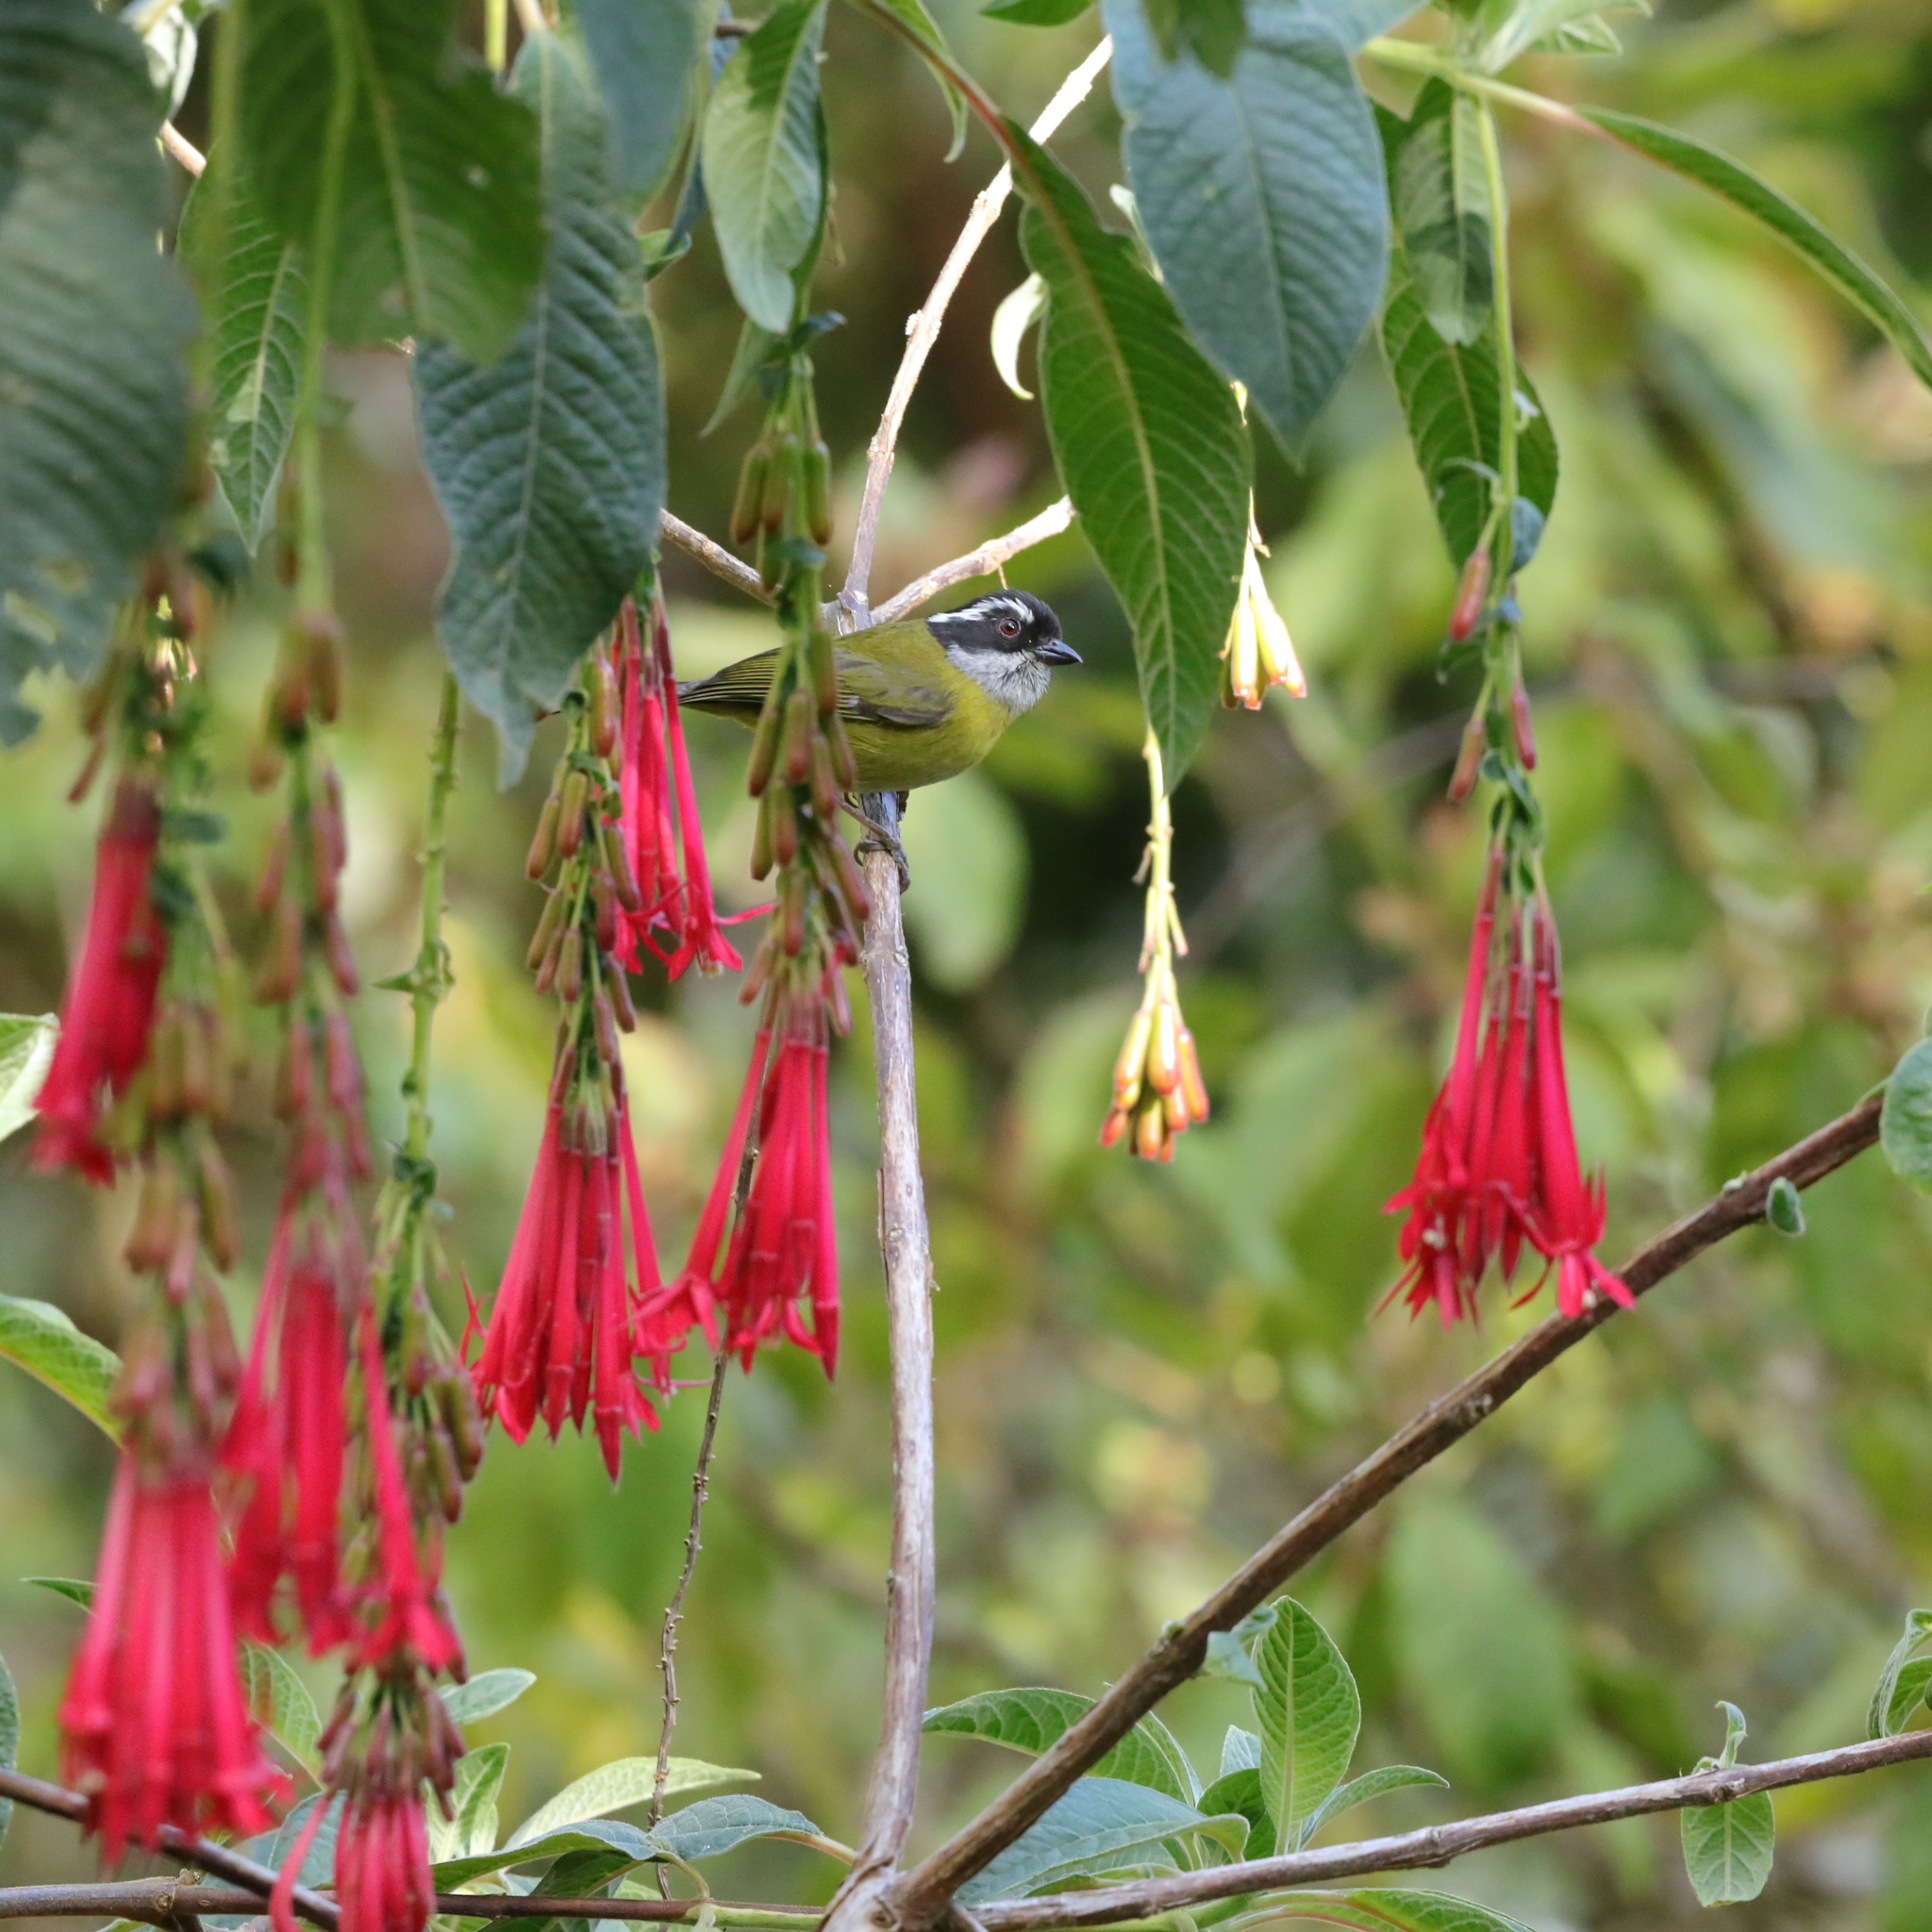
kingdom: Animalia
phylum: Chordata
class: Aves
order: Passeriformes
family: Passerellidae
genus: Chlorospingus
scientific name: Chlorospingus pileatus
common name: Sooty-capped bush-tanager
